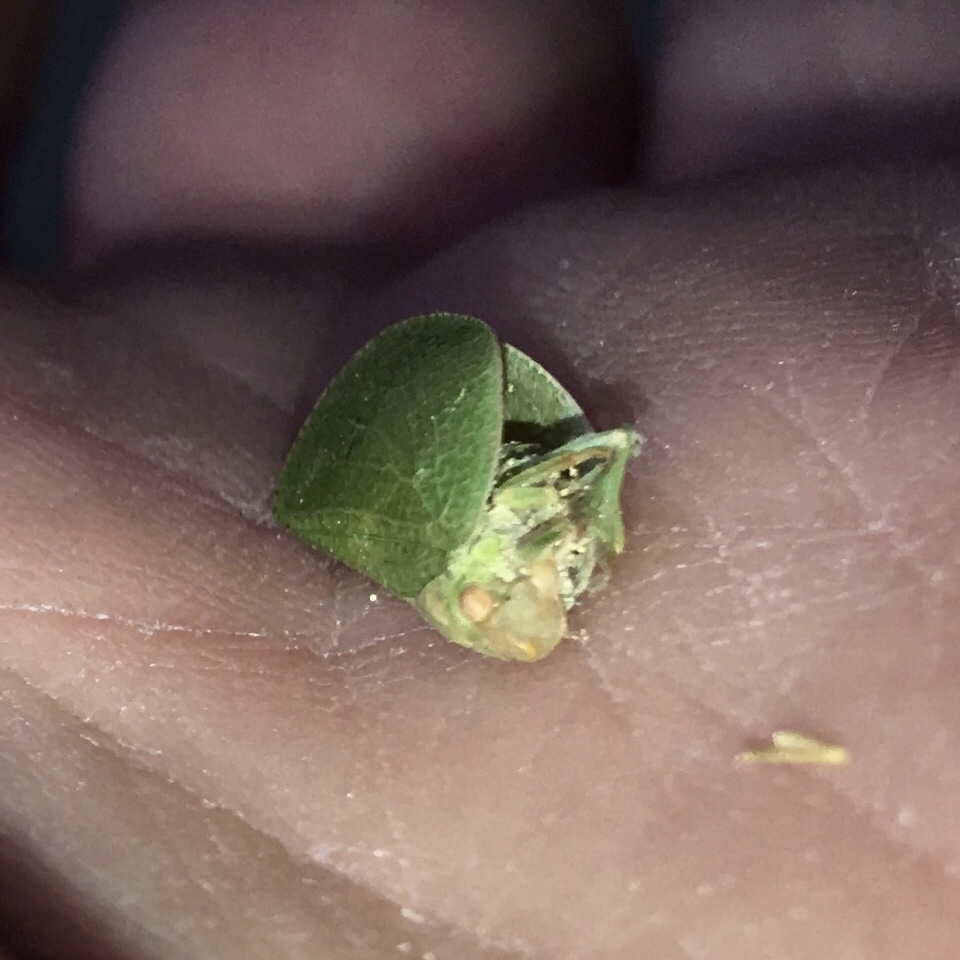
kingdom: Animalia
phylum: Arthropoda
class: Insecta
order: Hemiptera
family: Acanaloniidae
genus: Acanalonia
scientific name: Acanalonia conica
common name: Green cone-headed planthopper
